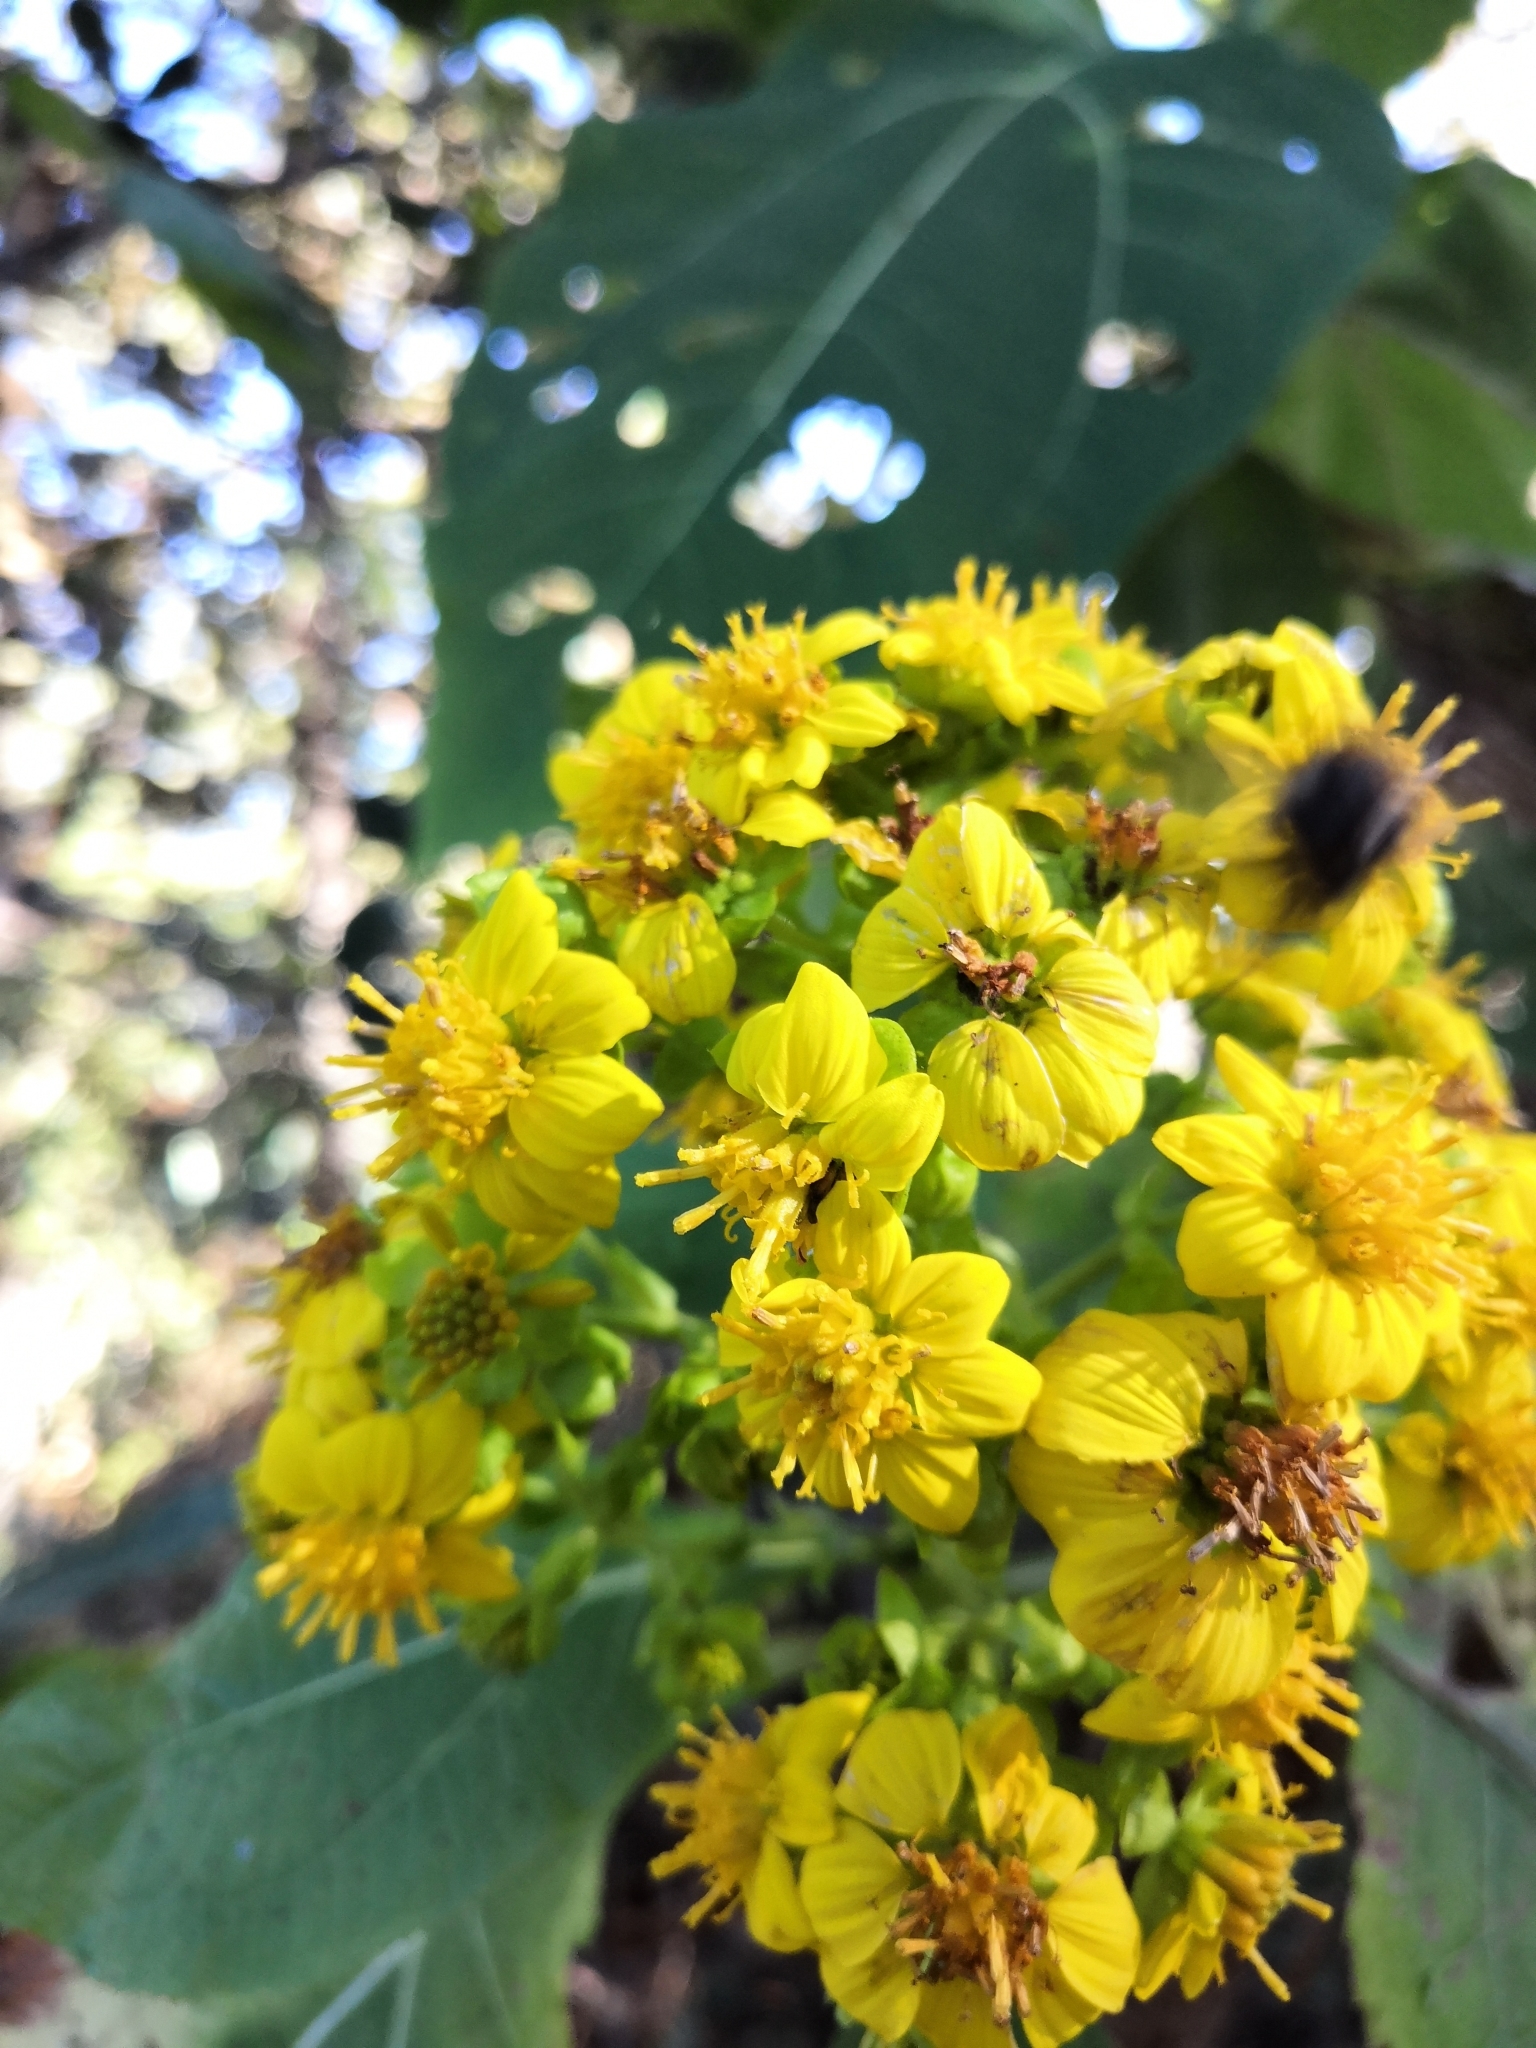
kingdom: Plantae
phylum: Tracheophyta
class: Magnoliopsida
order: Asterales
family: Asteraceae
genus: Rumfordia
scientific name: Rumfordia floribunda
